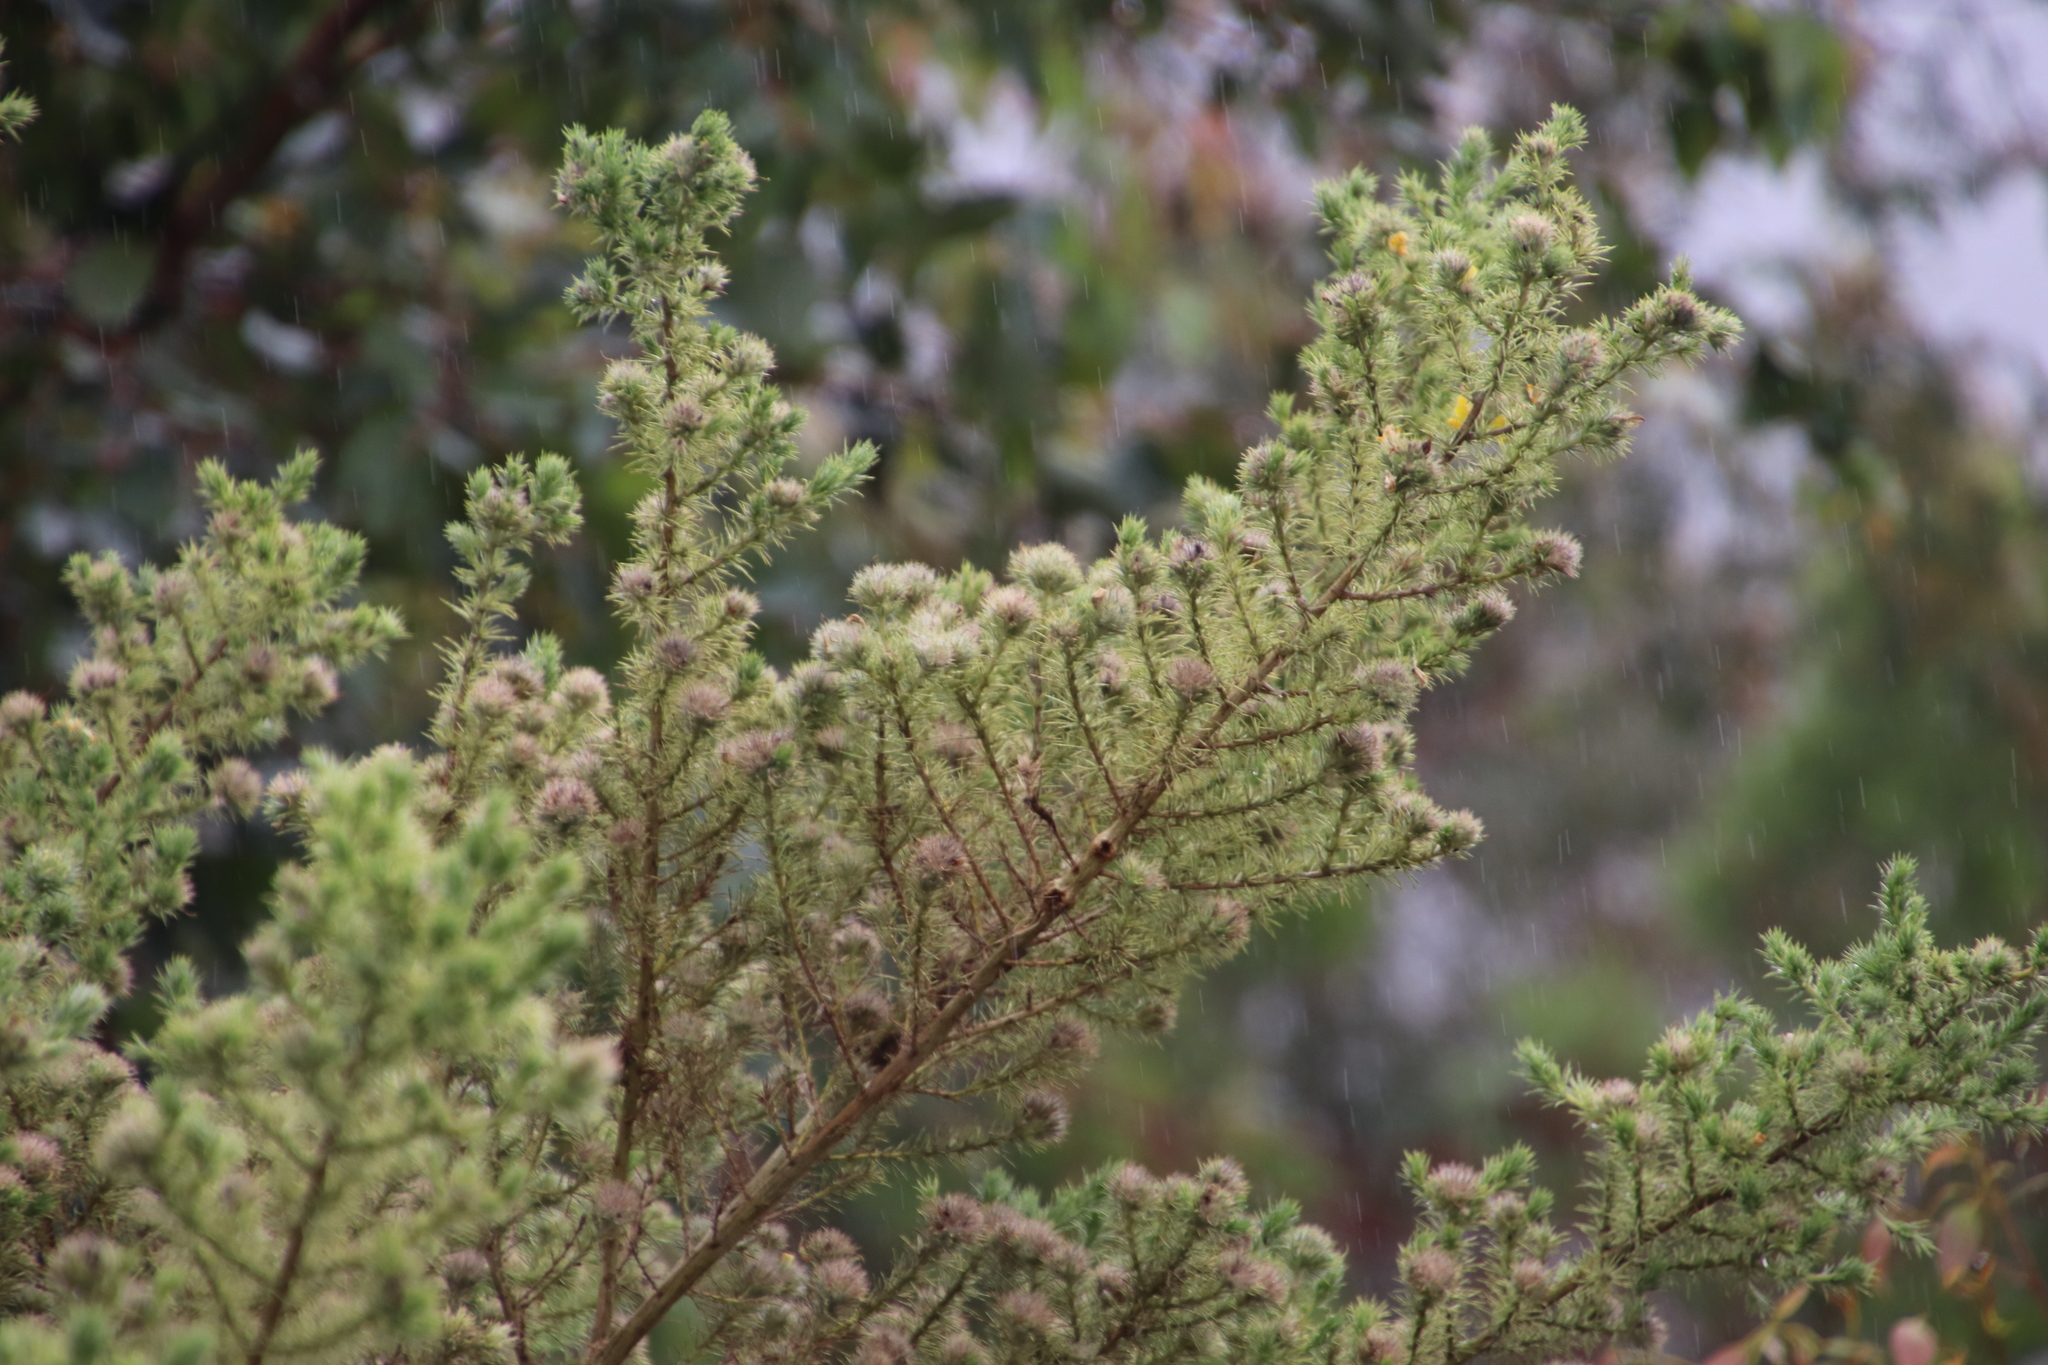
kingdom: Plantae
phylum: Tracheophyta
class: Magnoliopsida
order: Fabales
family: Fabaceae
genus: Aspalathus
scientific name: Aspalathus chenopoda
